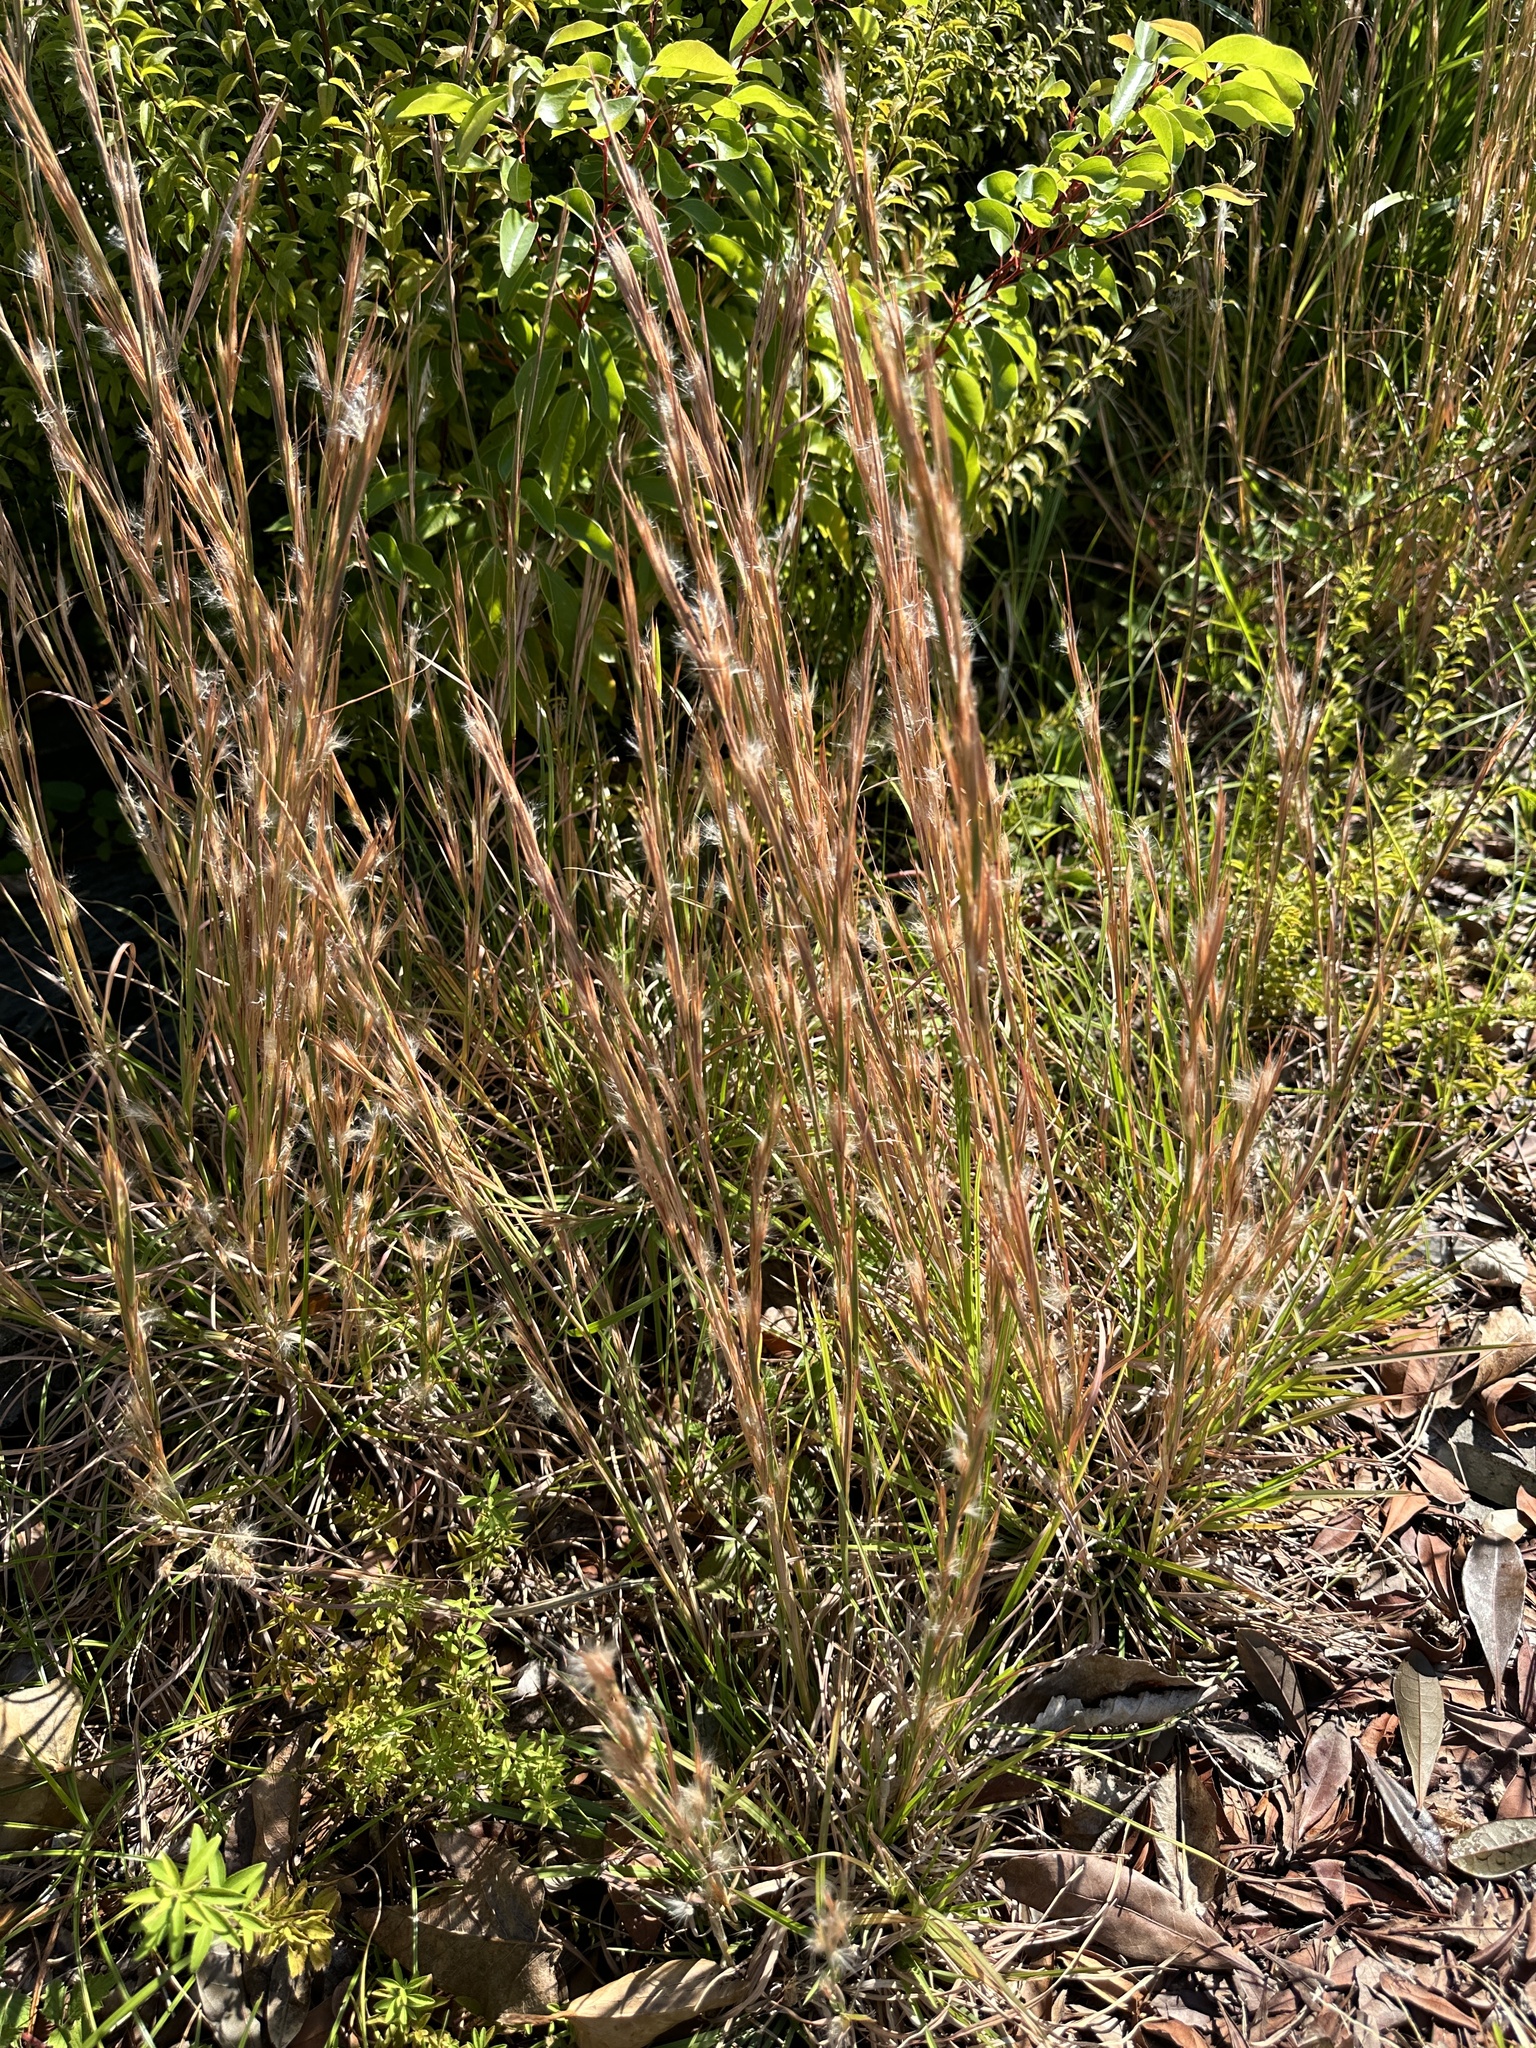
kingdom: Plantae
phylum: Tracheophyta
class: Liliopsida
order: Poales
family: Poaceae
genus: Andropogon
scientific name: Andropogon virginicus
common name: Broomsedge bluestem
